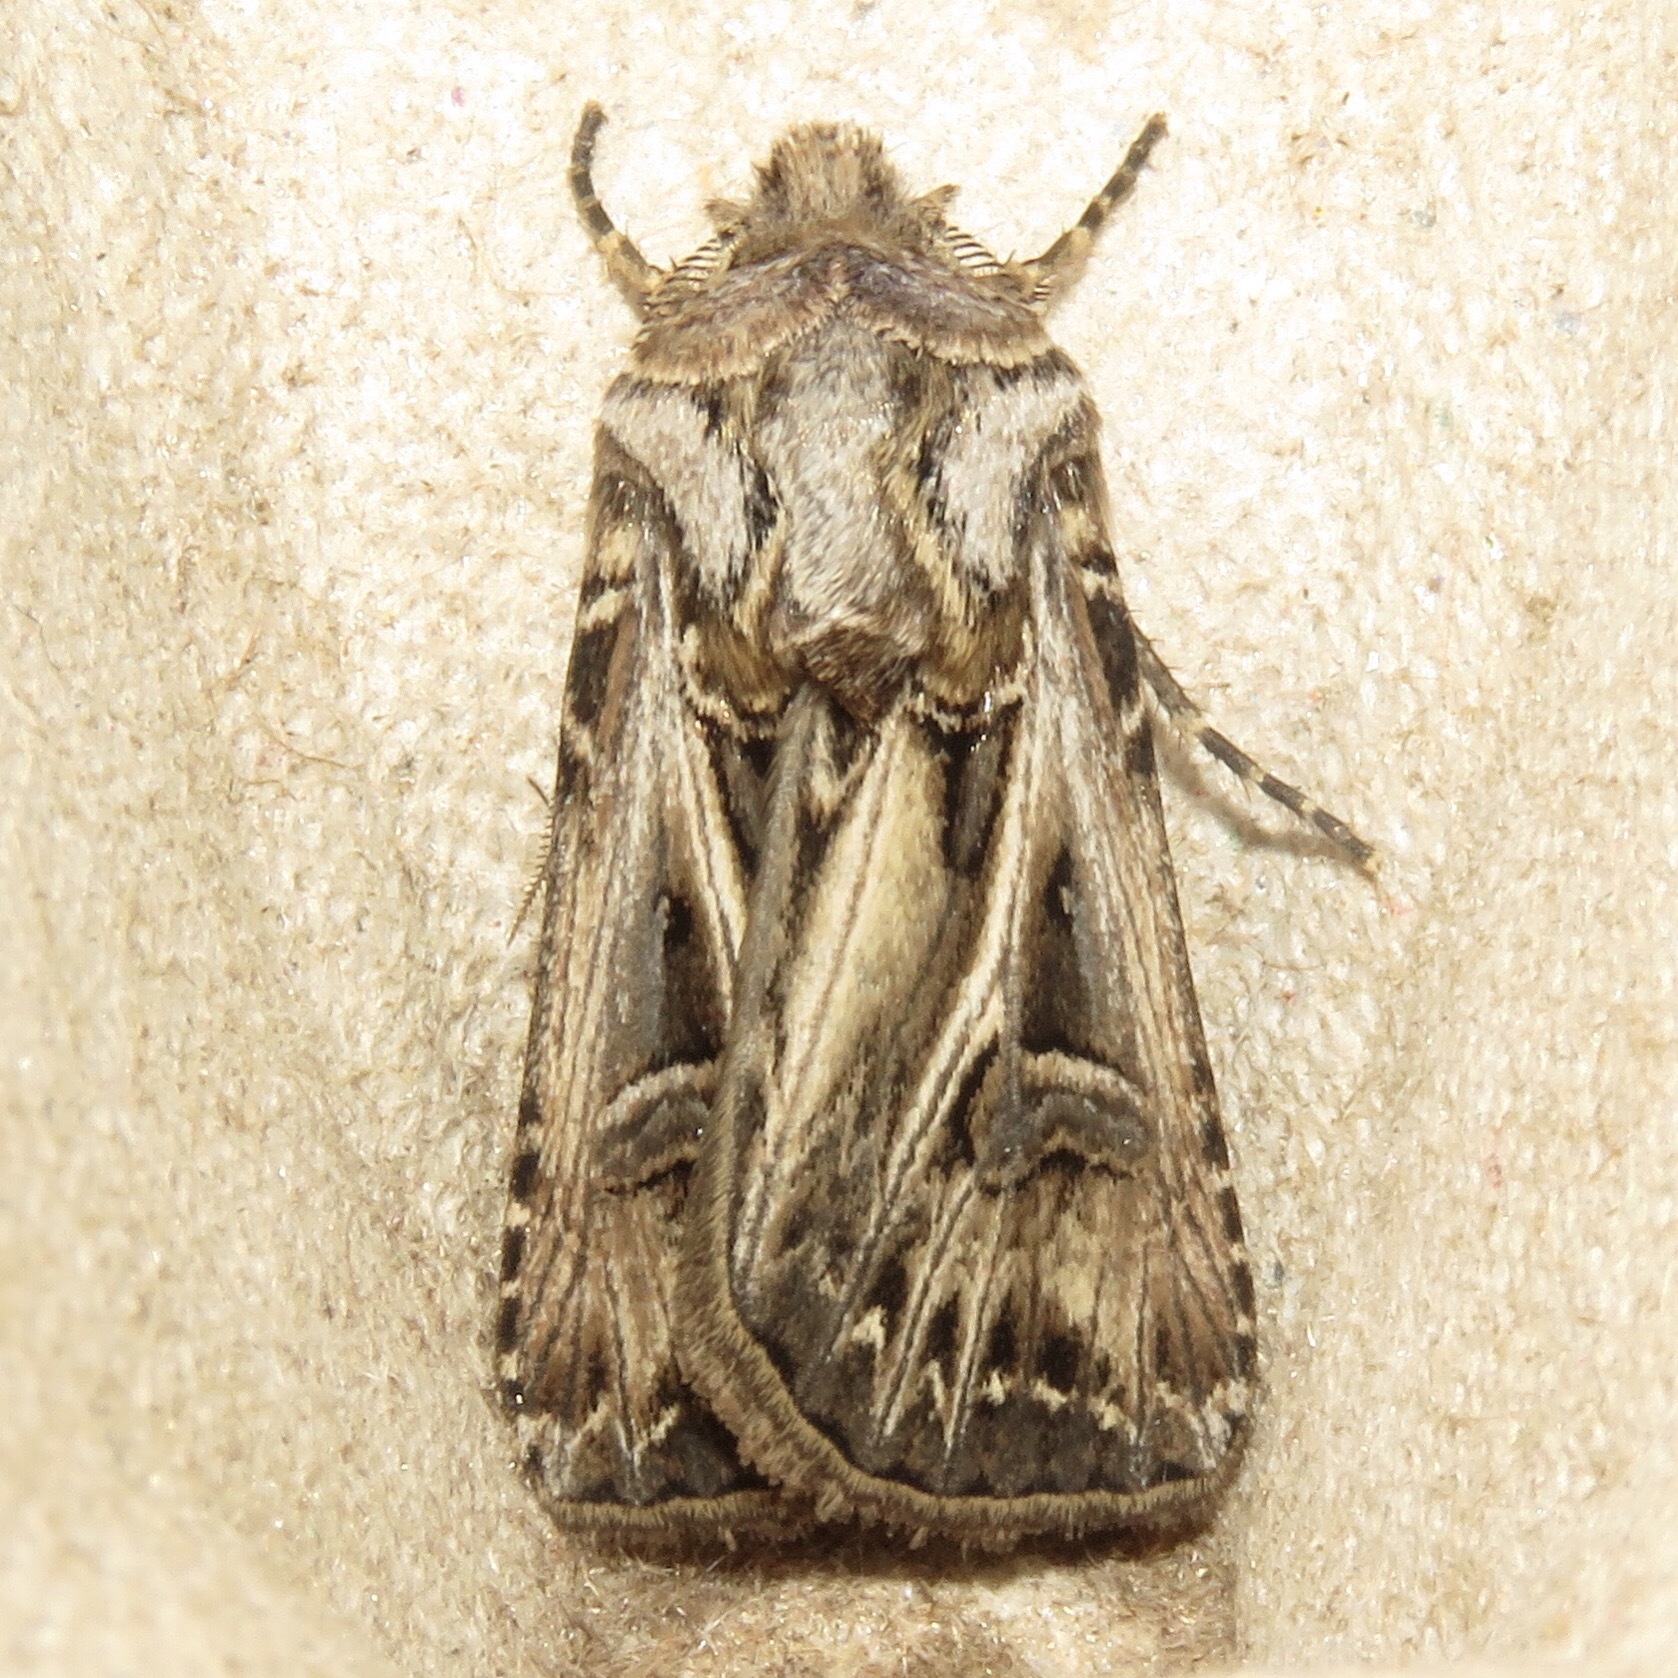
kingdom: Animalia
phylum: Arthropoda
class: Insecta
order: Lepidoptera
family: Noctuidae
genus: Agrotis
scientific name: Agrotis gladiaria
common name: Claybacked cutworm
